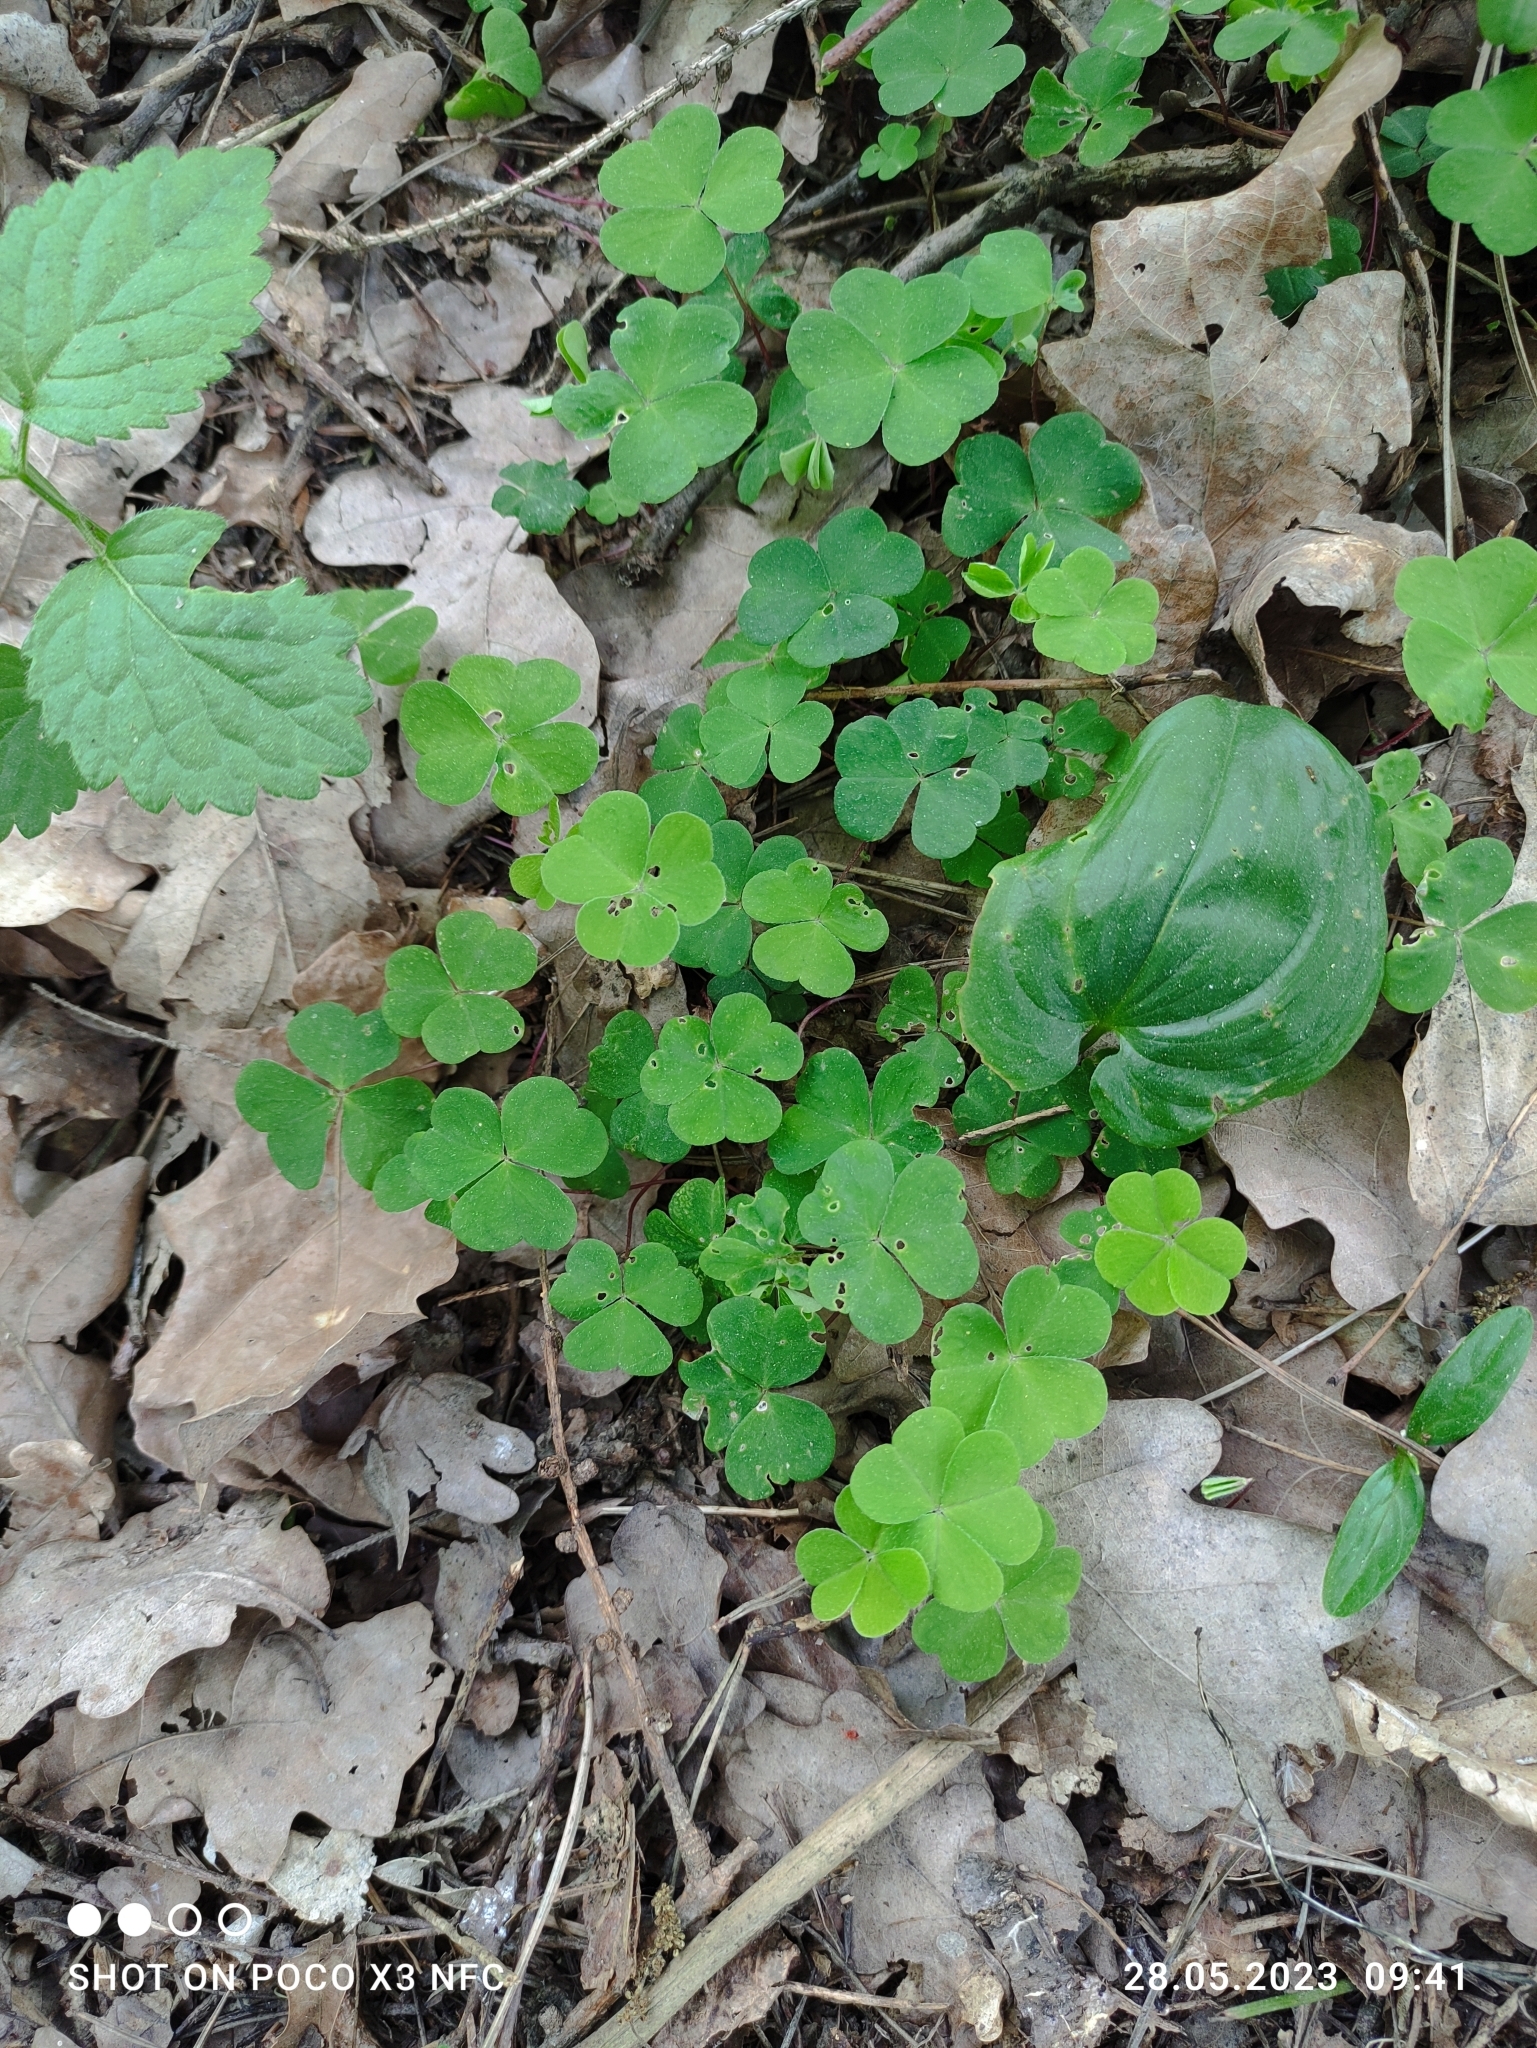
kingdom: Plantae
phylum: Tracheophyta
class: Magnoliopsida
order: Oxalidales
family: Oxalidaceae
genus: Oxalis
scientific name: Oxalis acetosella
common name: Wood-sorrel
